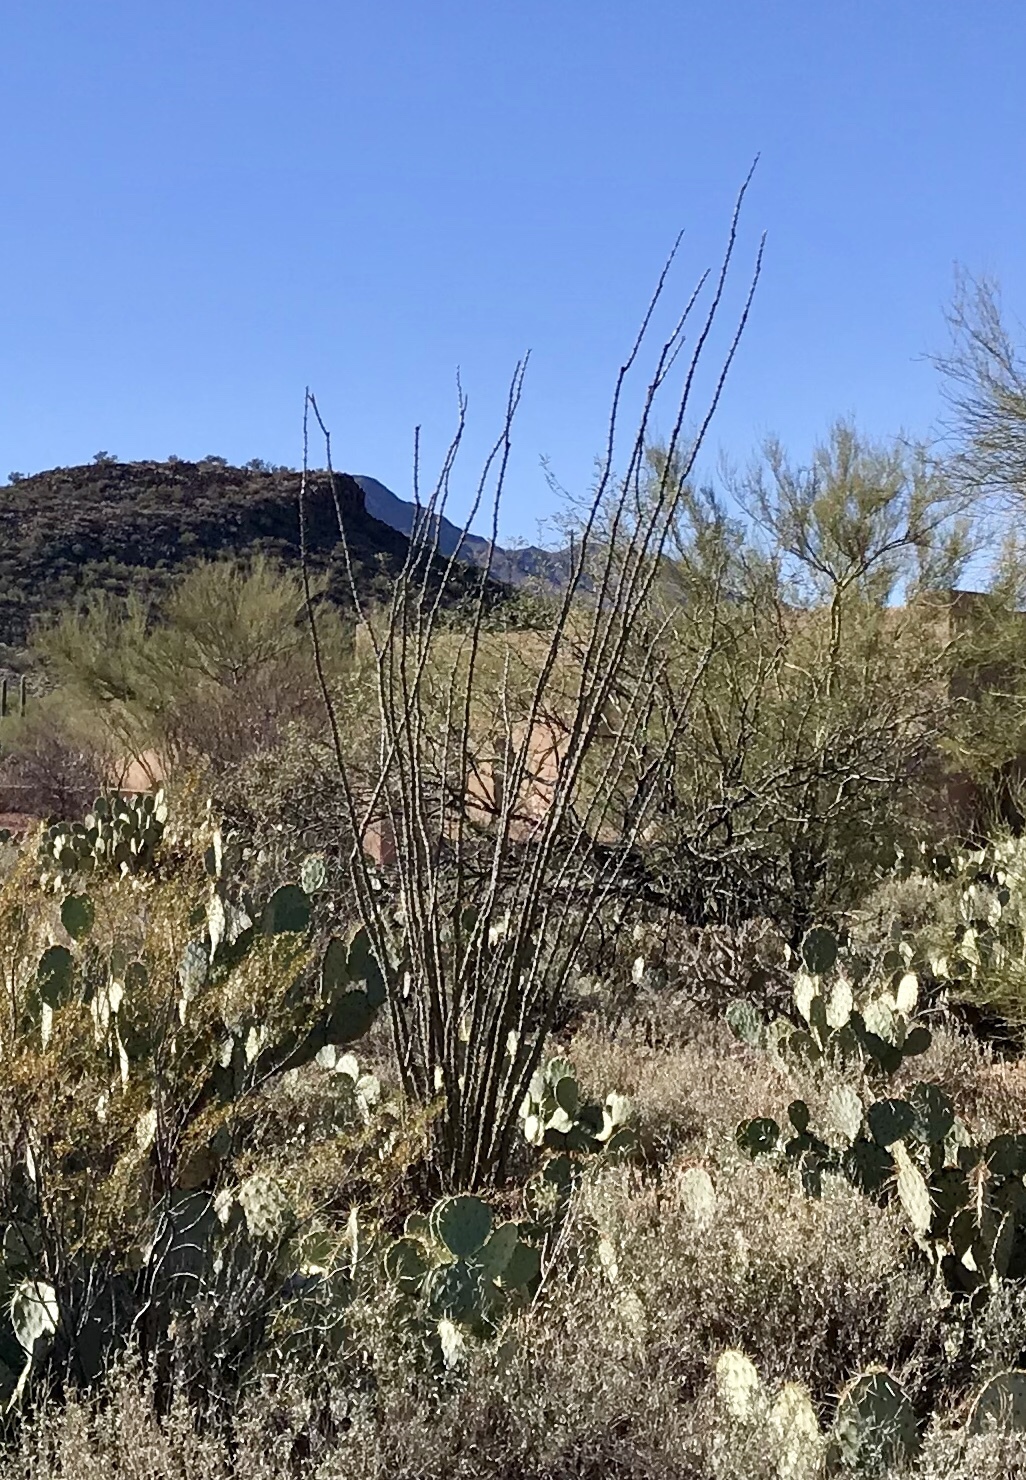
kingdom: Plantae
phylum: Tracheophyta
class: Magnoliopsida
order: Ericales
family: Fouquieriaceae
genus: Fouquieria
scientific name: Fouquieria splendens
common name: Vine-cactus
